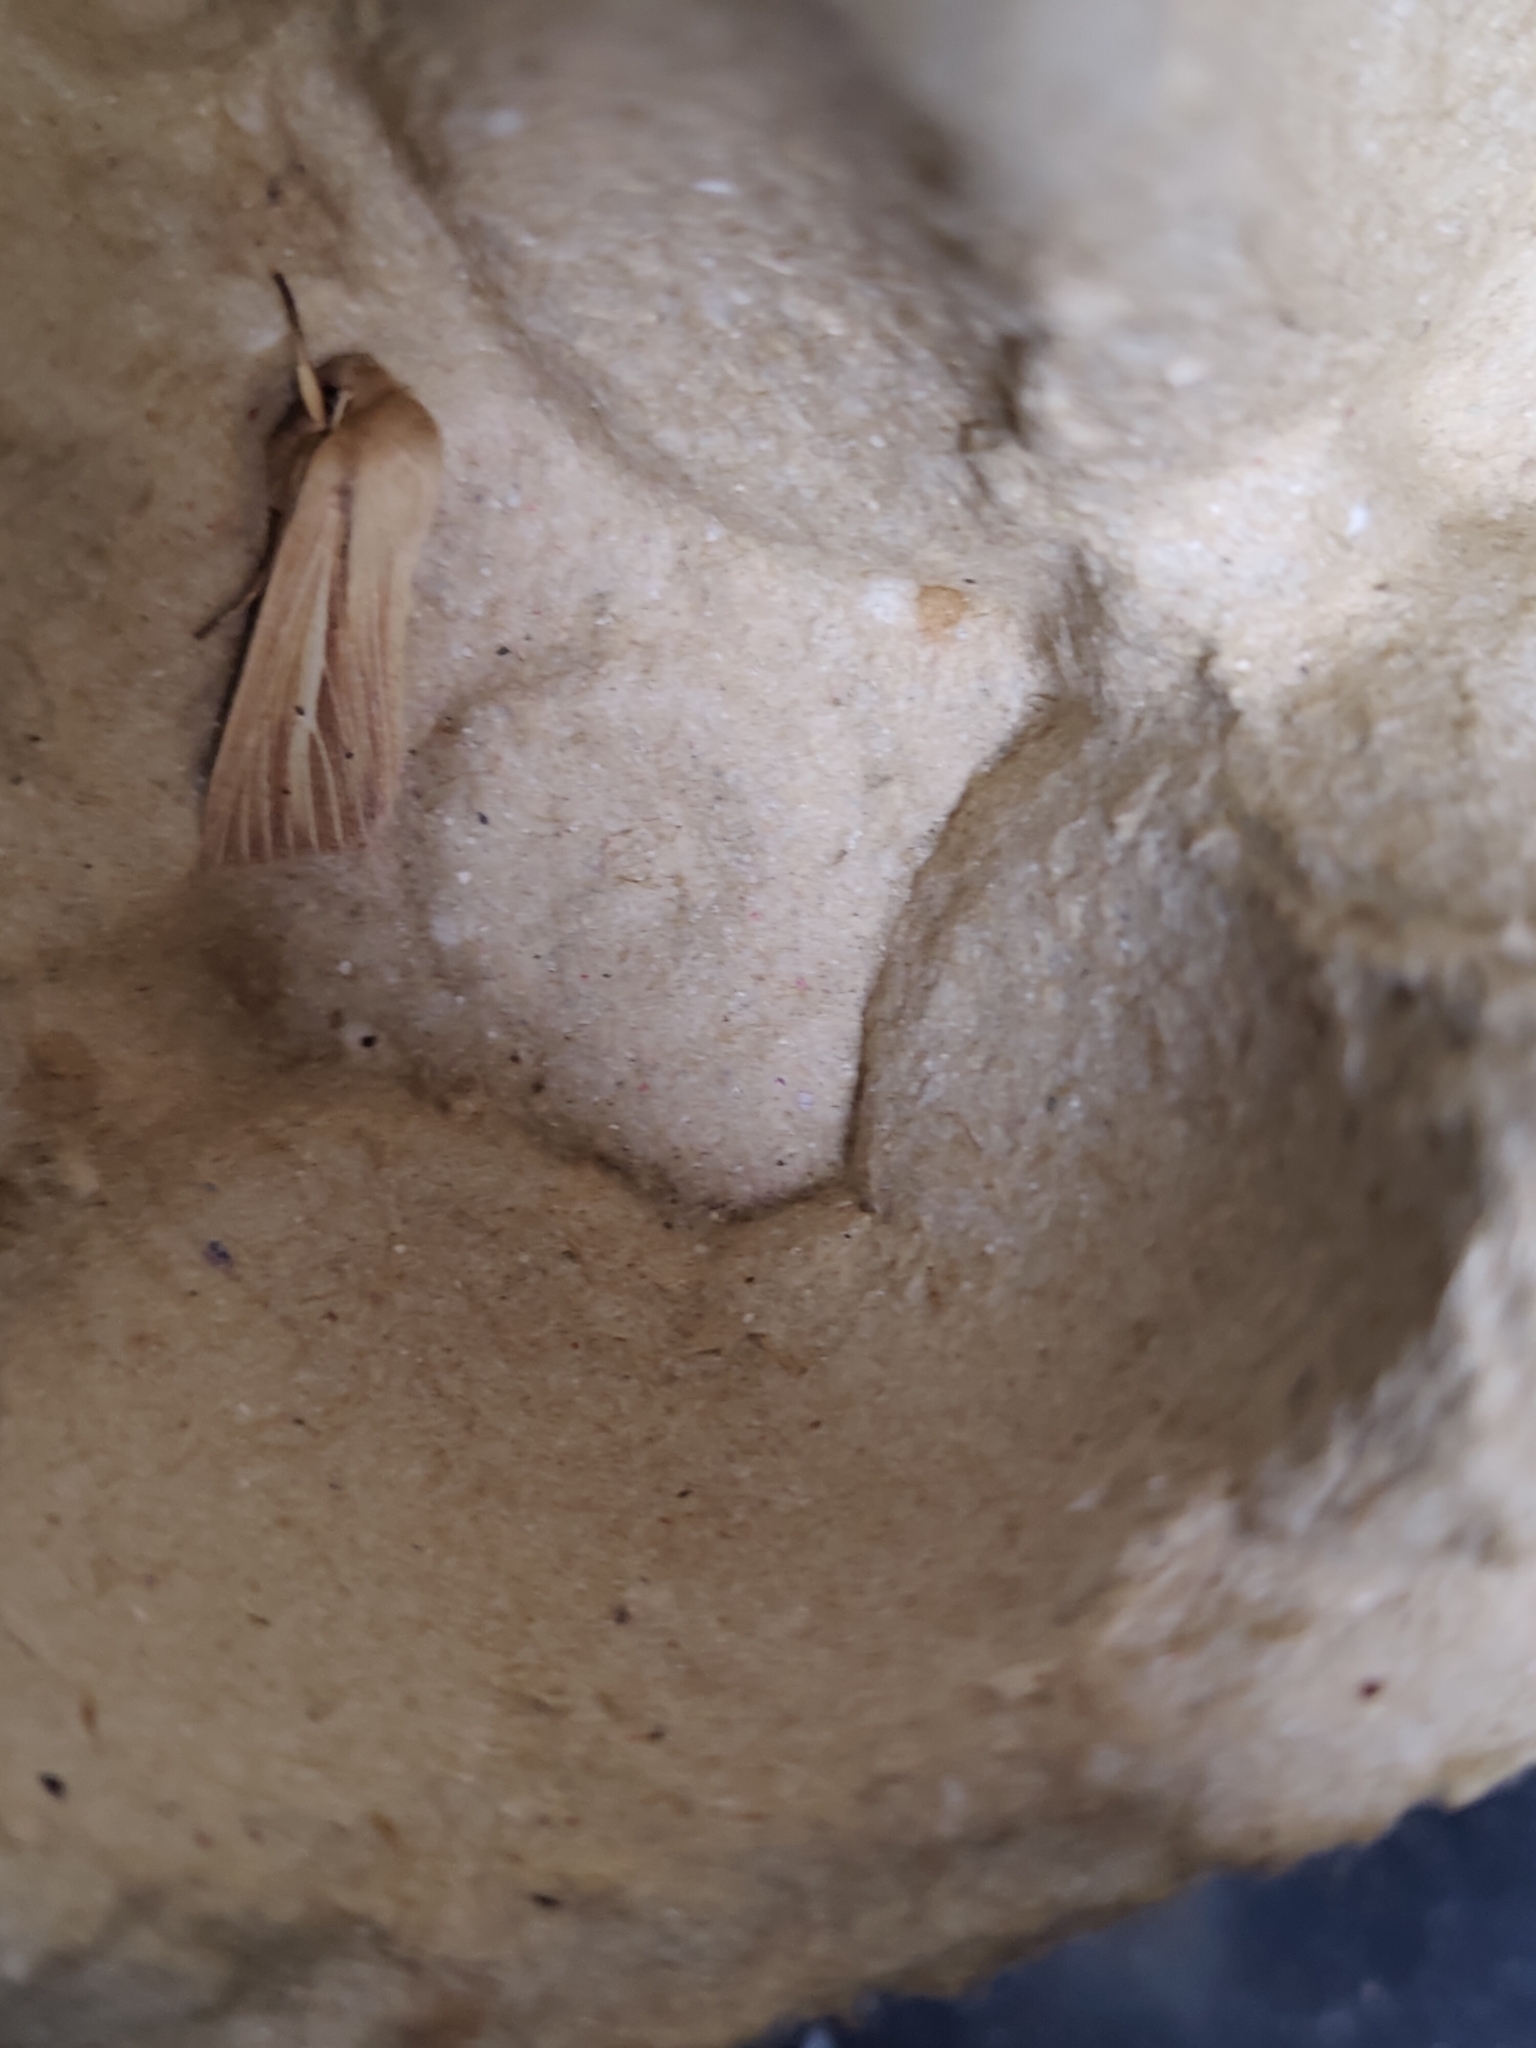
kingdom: Animalia
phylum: Arthropoda
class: Insecta
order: Lepidoptera
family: Noctuidae
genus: Mythimna
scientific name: Mythimna impura
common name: Smoky wainscot
